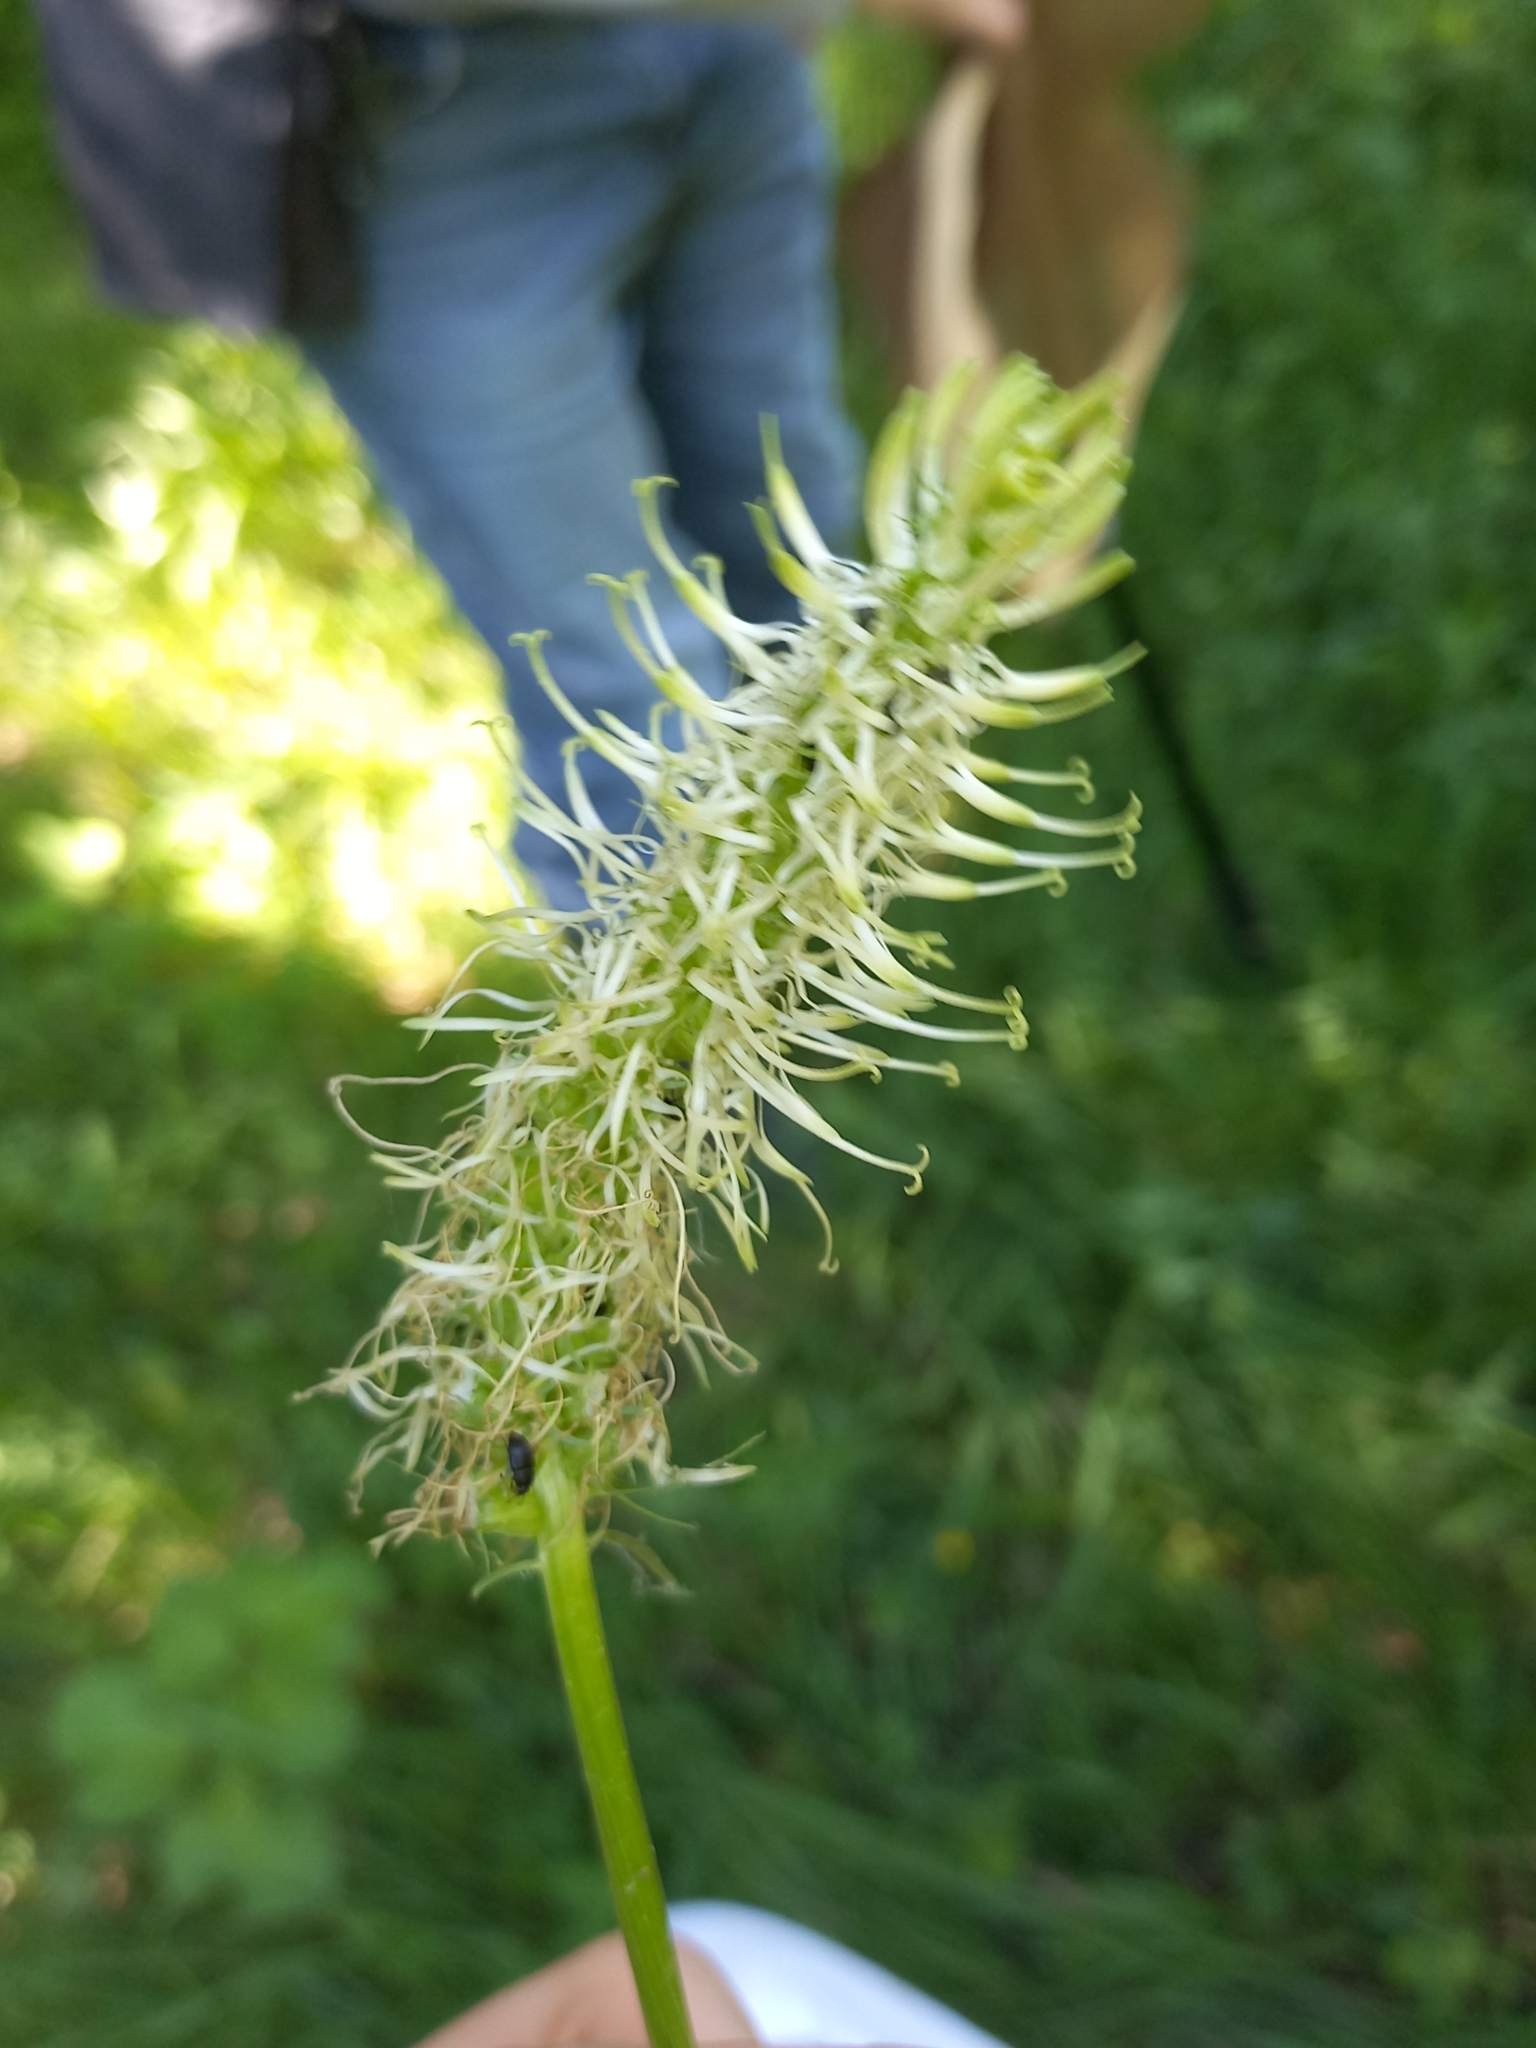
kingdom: Plantae
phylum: Tracheophyta
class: Magnoliopsida
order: Asterales
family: Campanulaceae
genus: Phyteuma
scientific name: Phyteuma spicatum
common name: Spiked rampion
